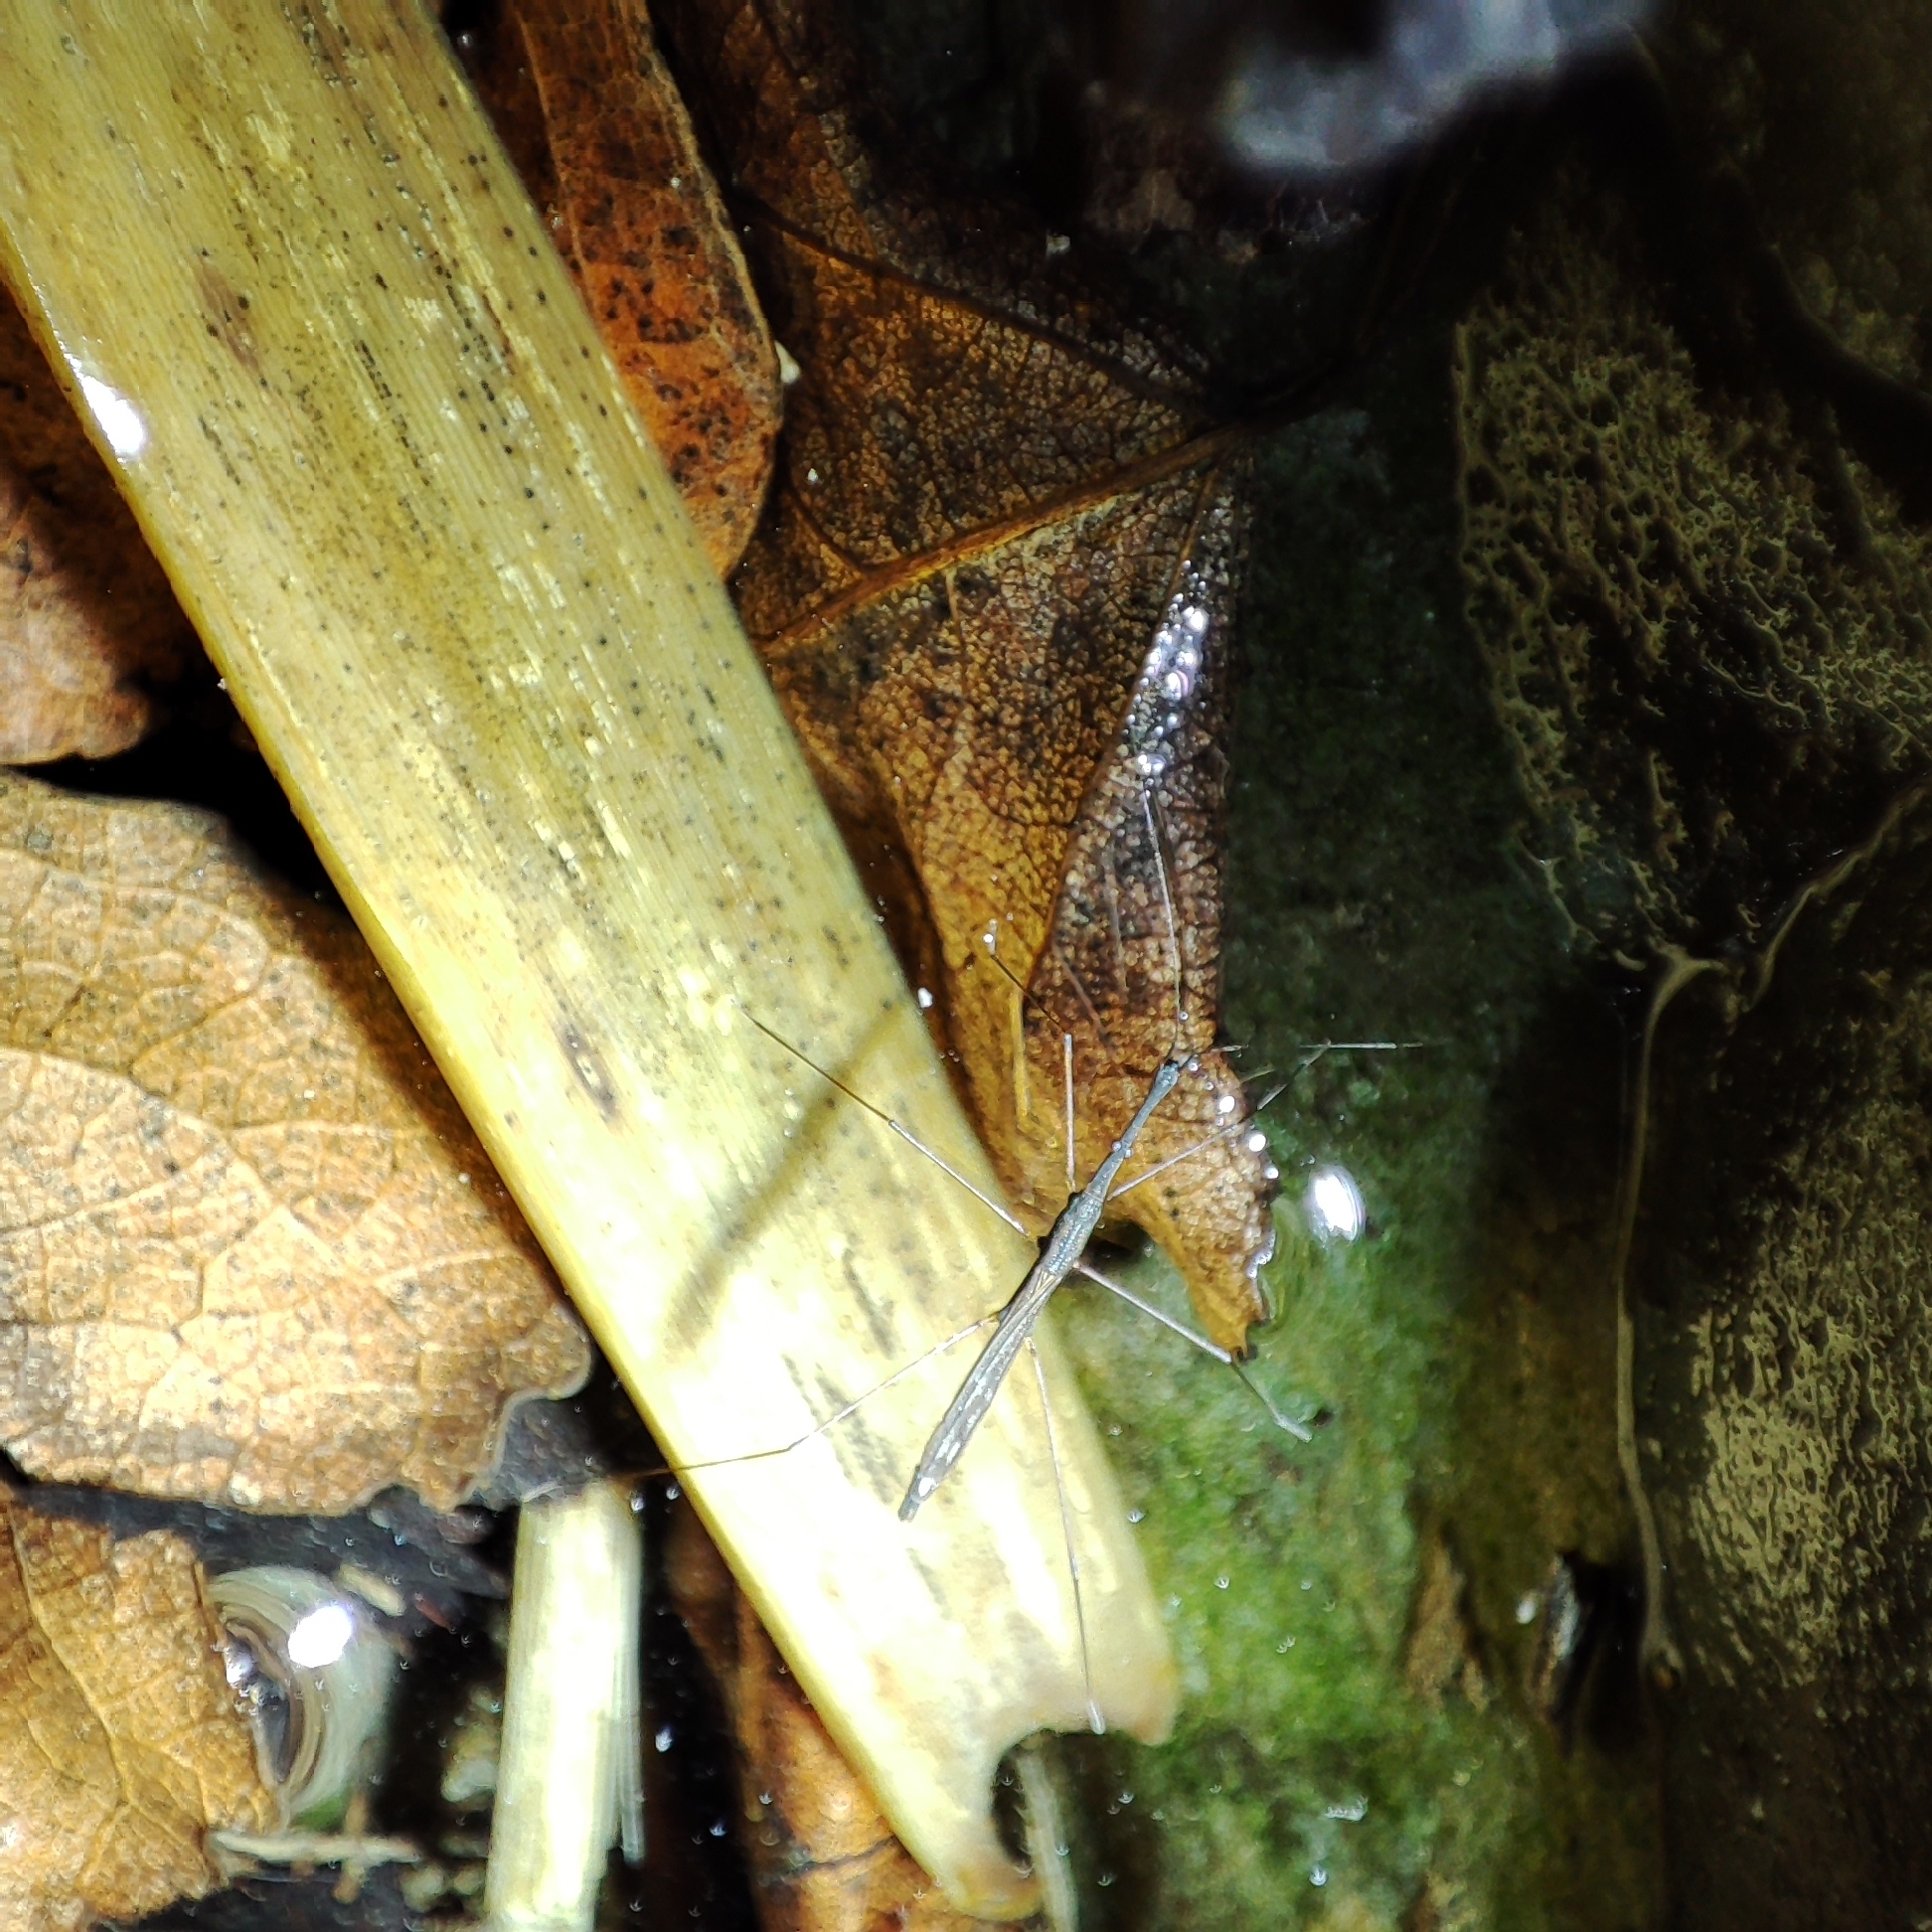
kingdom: Animalia
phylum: Arthropoda
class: Insecta
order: Hemiptera
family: Hydrometridae
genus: Hydrometra
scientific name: Hydrometra stagnorum
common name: Water measurer
